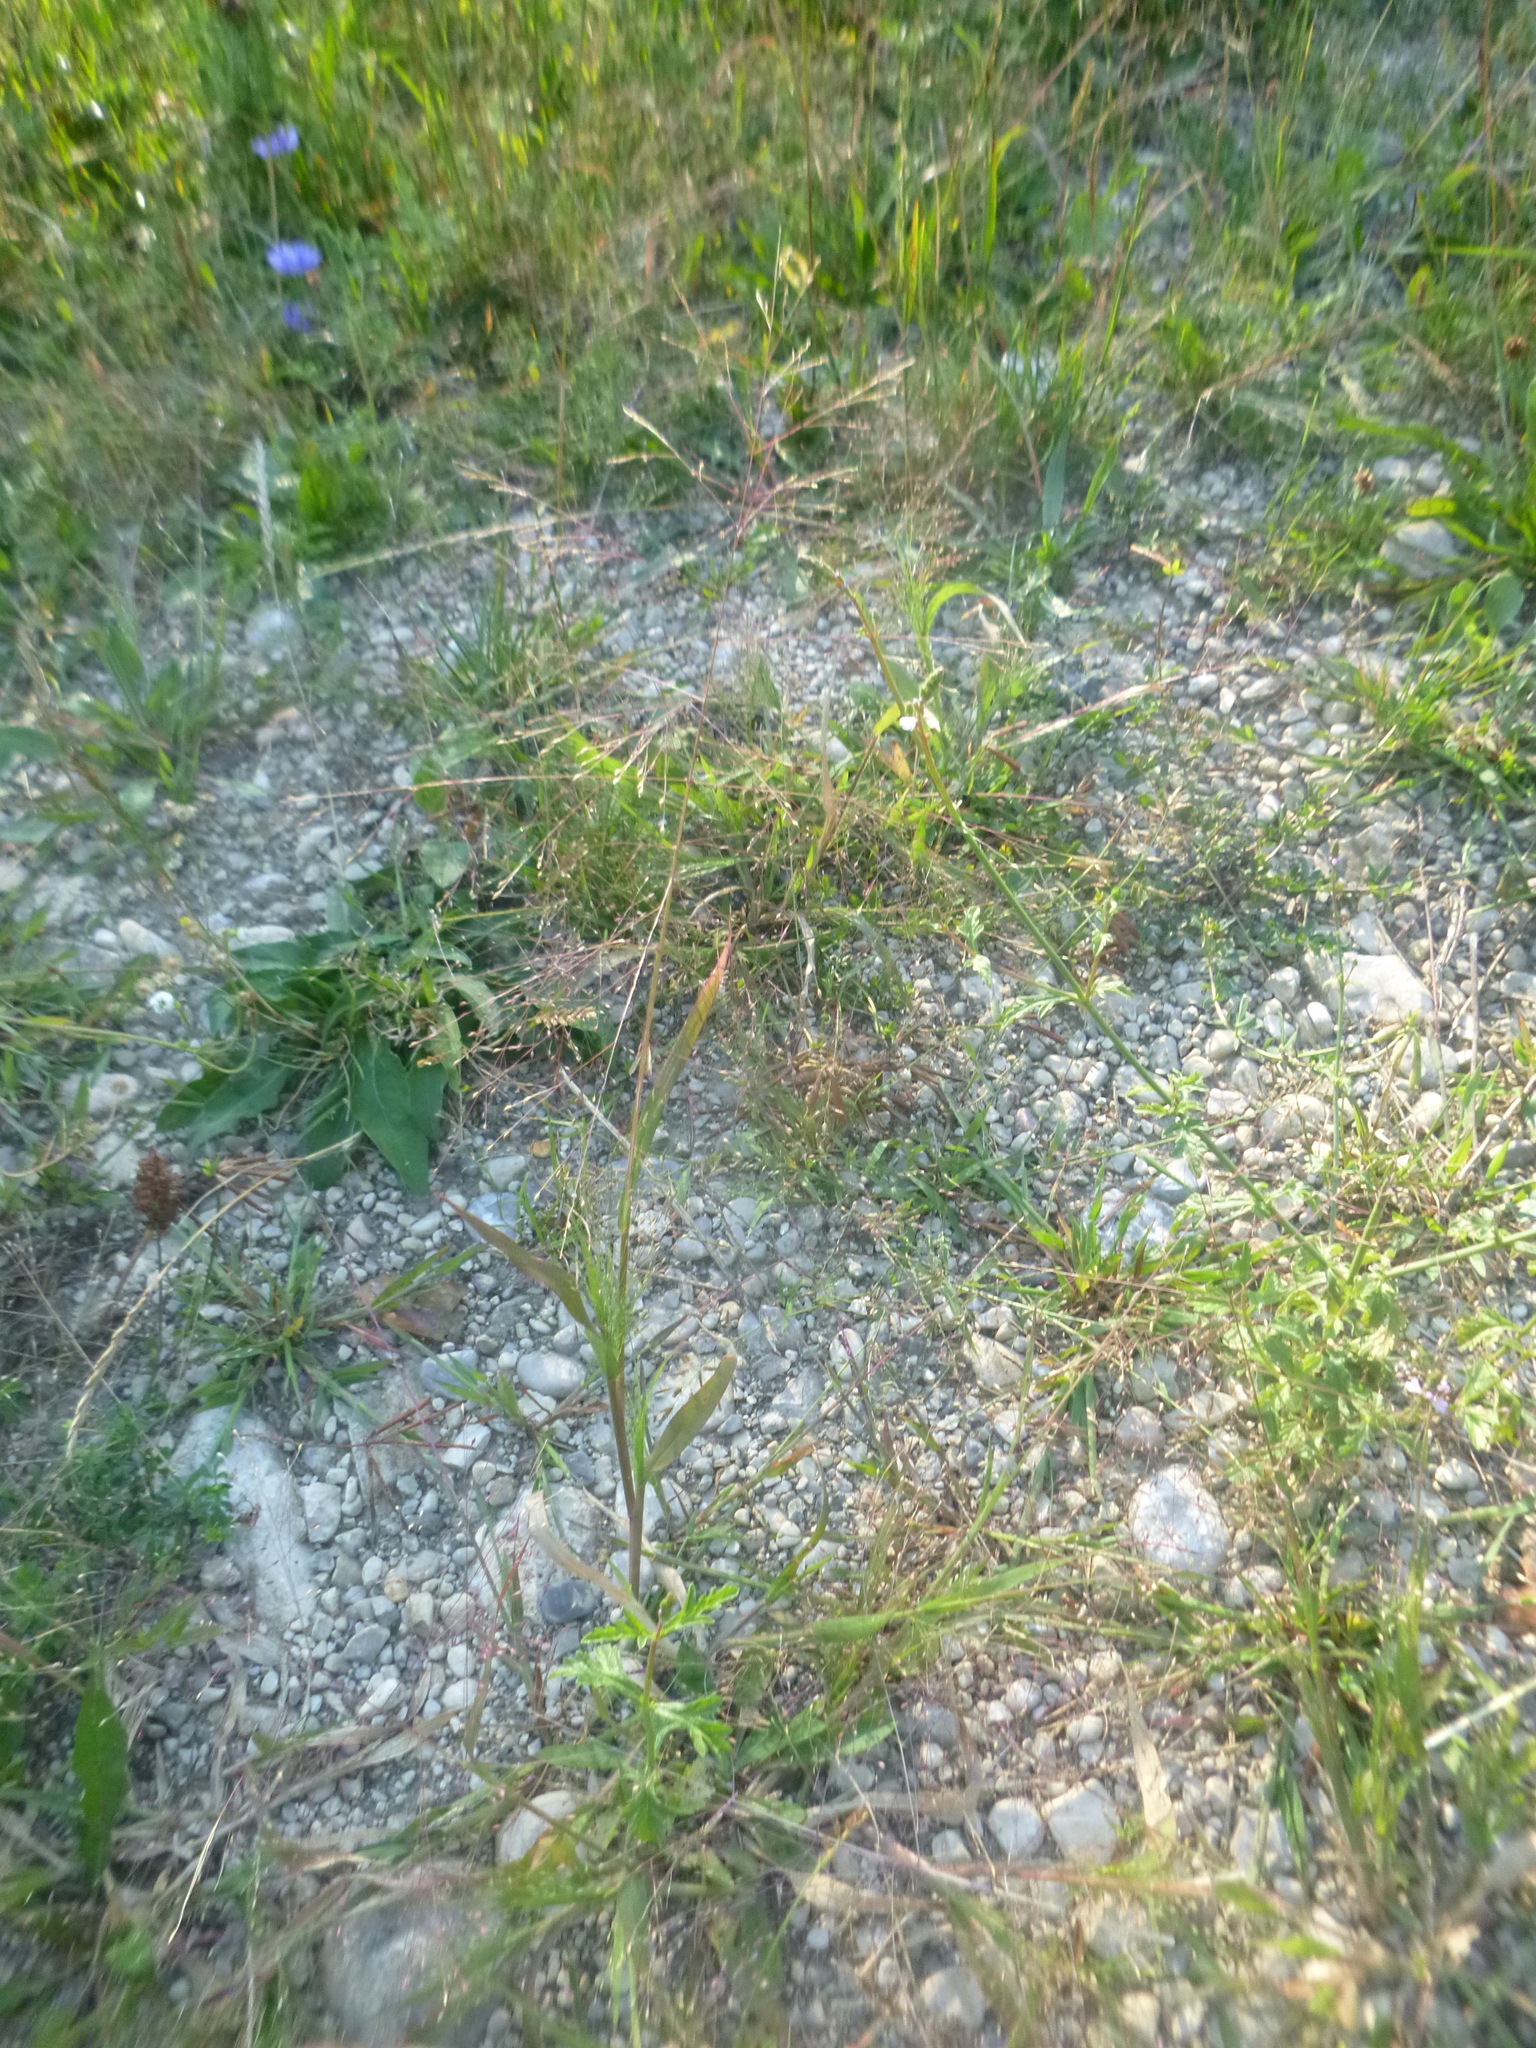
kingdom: Plantae
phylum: Tracheophyta
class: Liliopsida
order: Poales
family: Poaceae
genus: Panicum
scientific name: Panicum capillare
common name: Witch-grass
